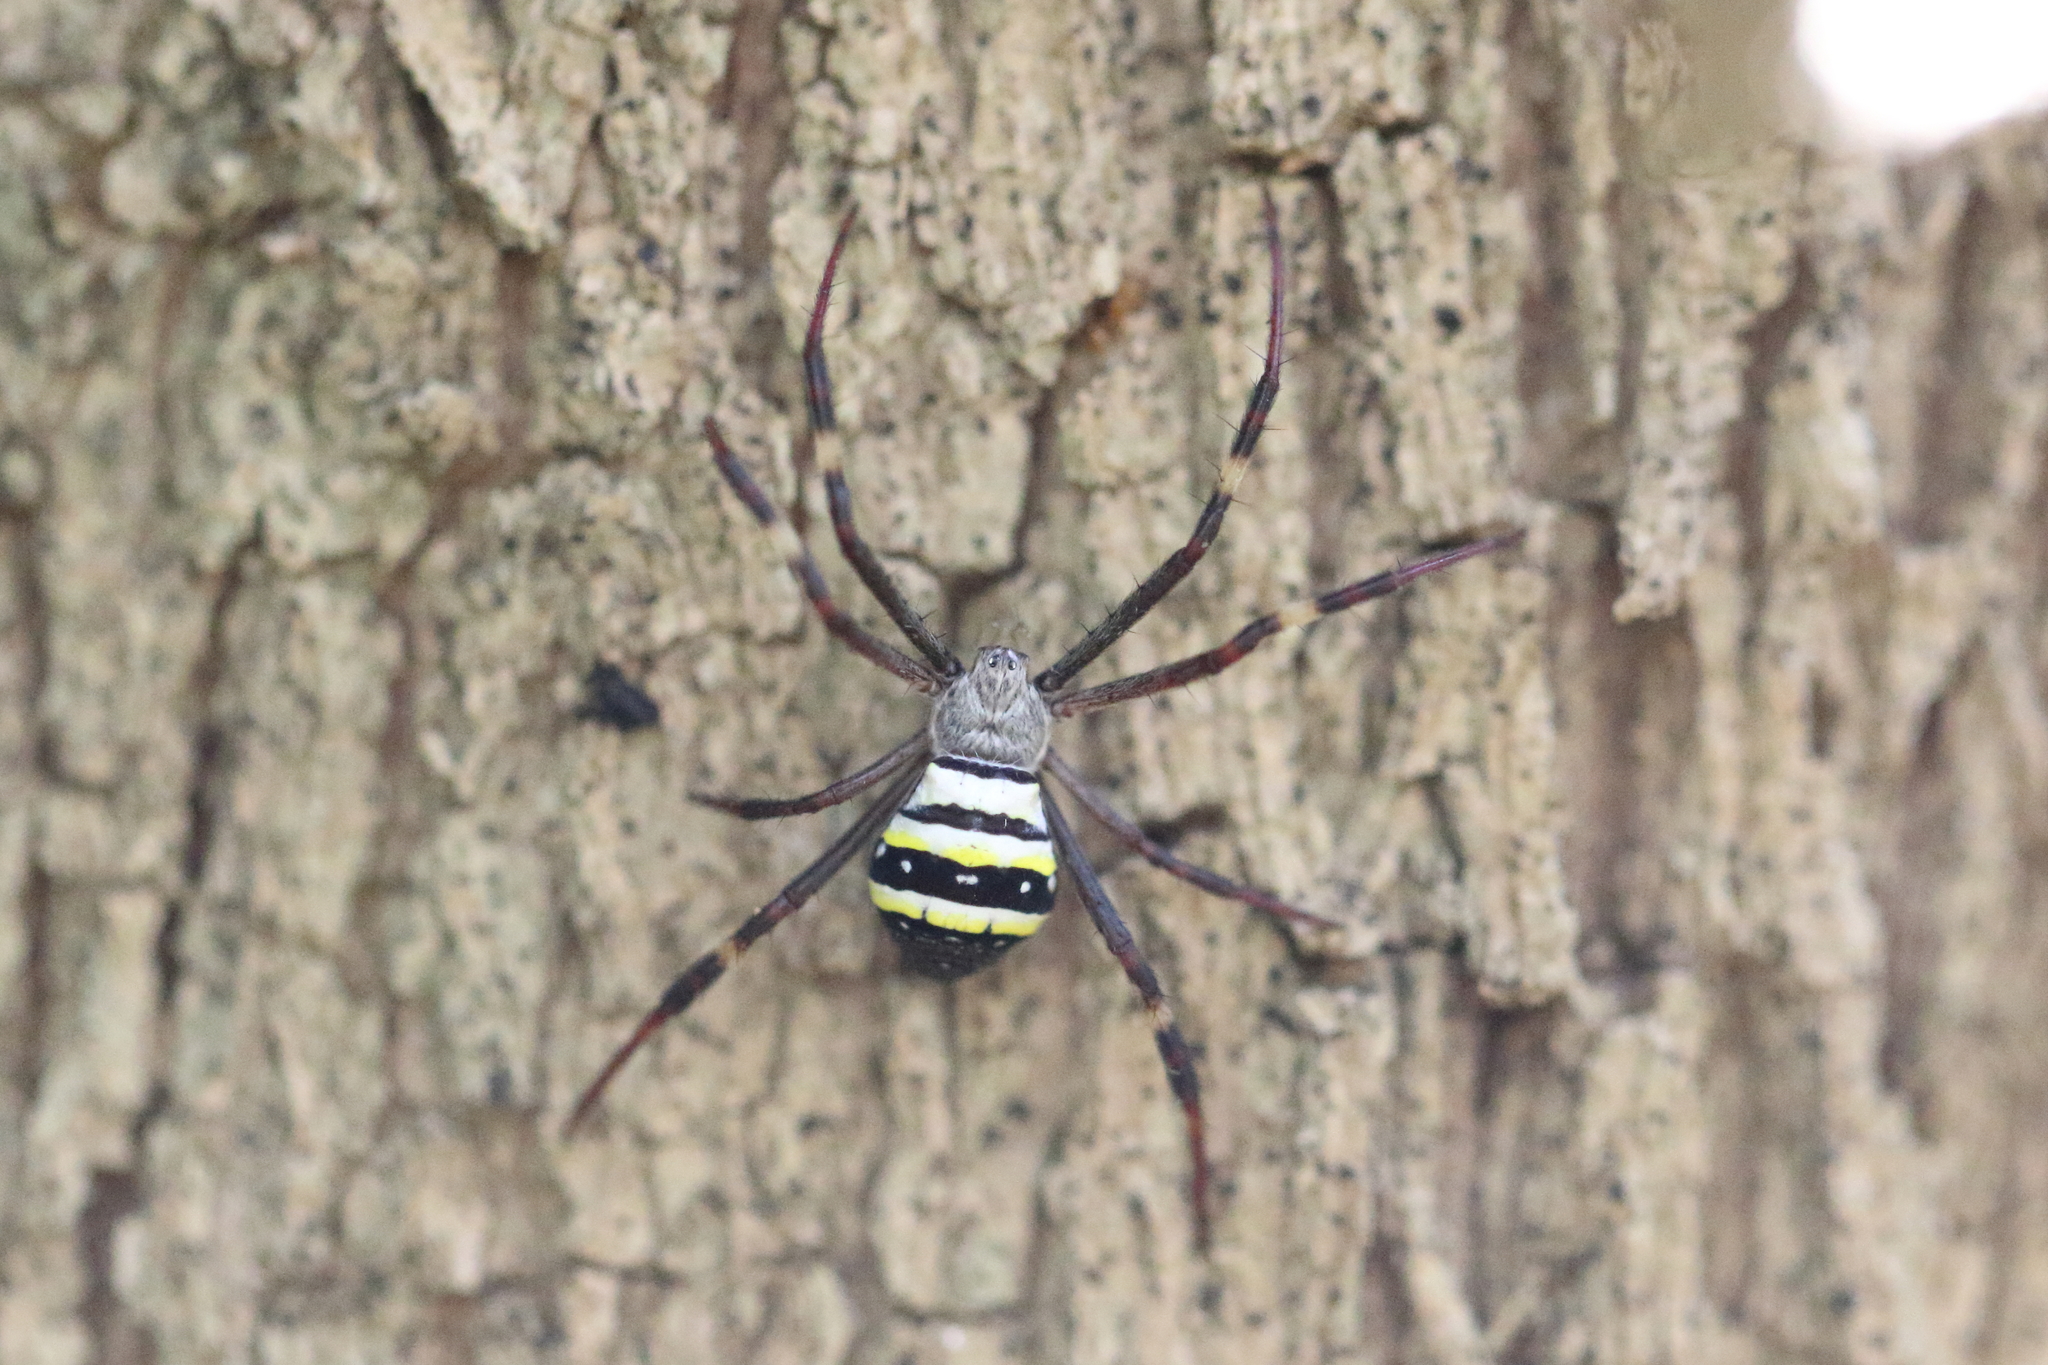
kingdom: Animalia
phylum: Arthropoda
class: Arachnida
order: Araneae
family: Araneidae
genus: Argiope
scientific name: Argiope keyserlingi
